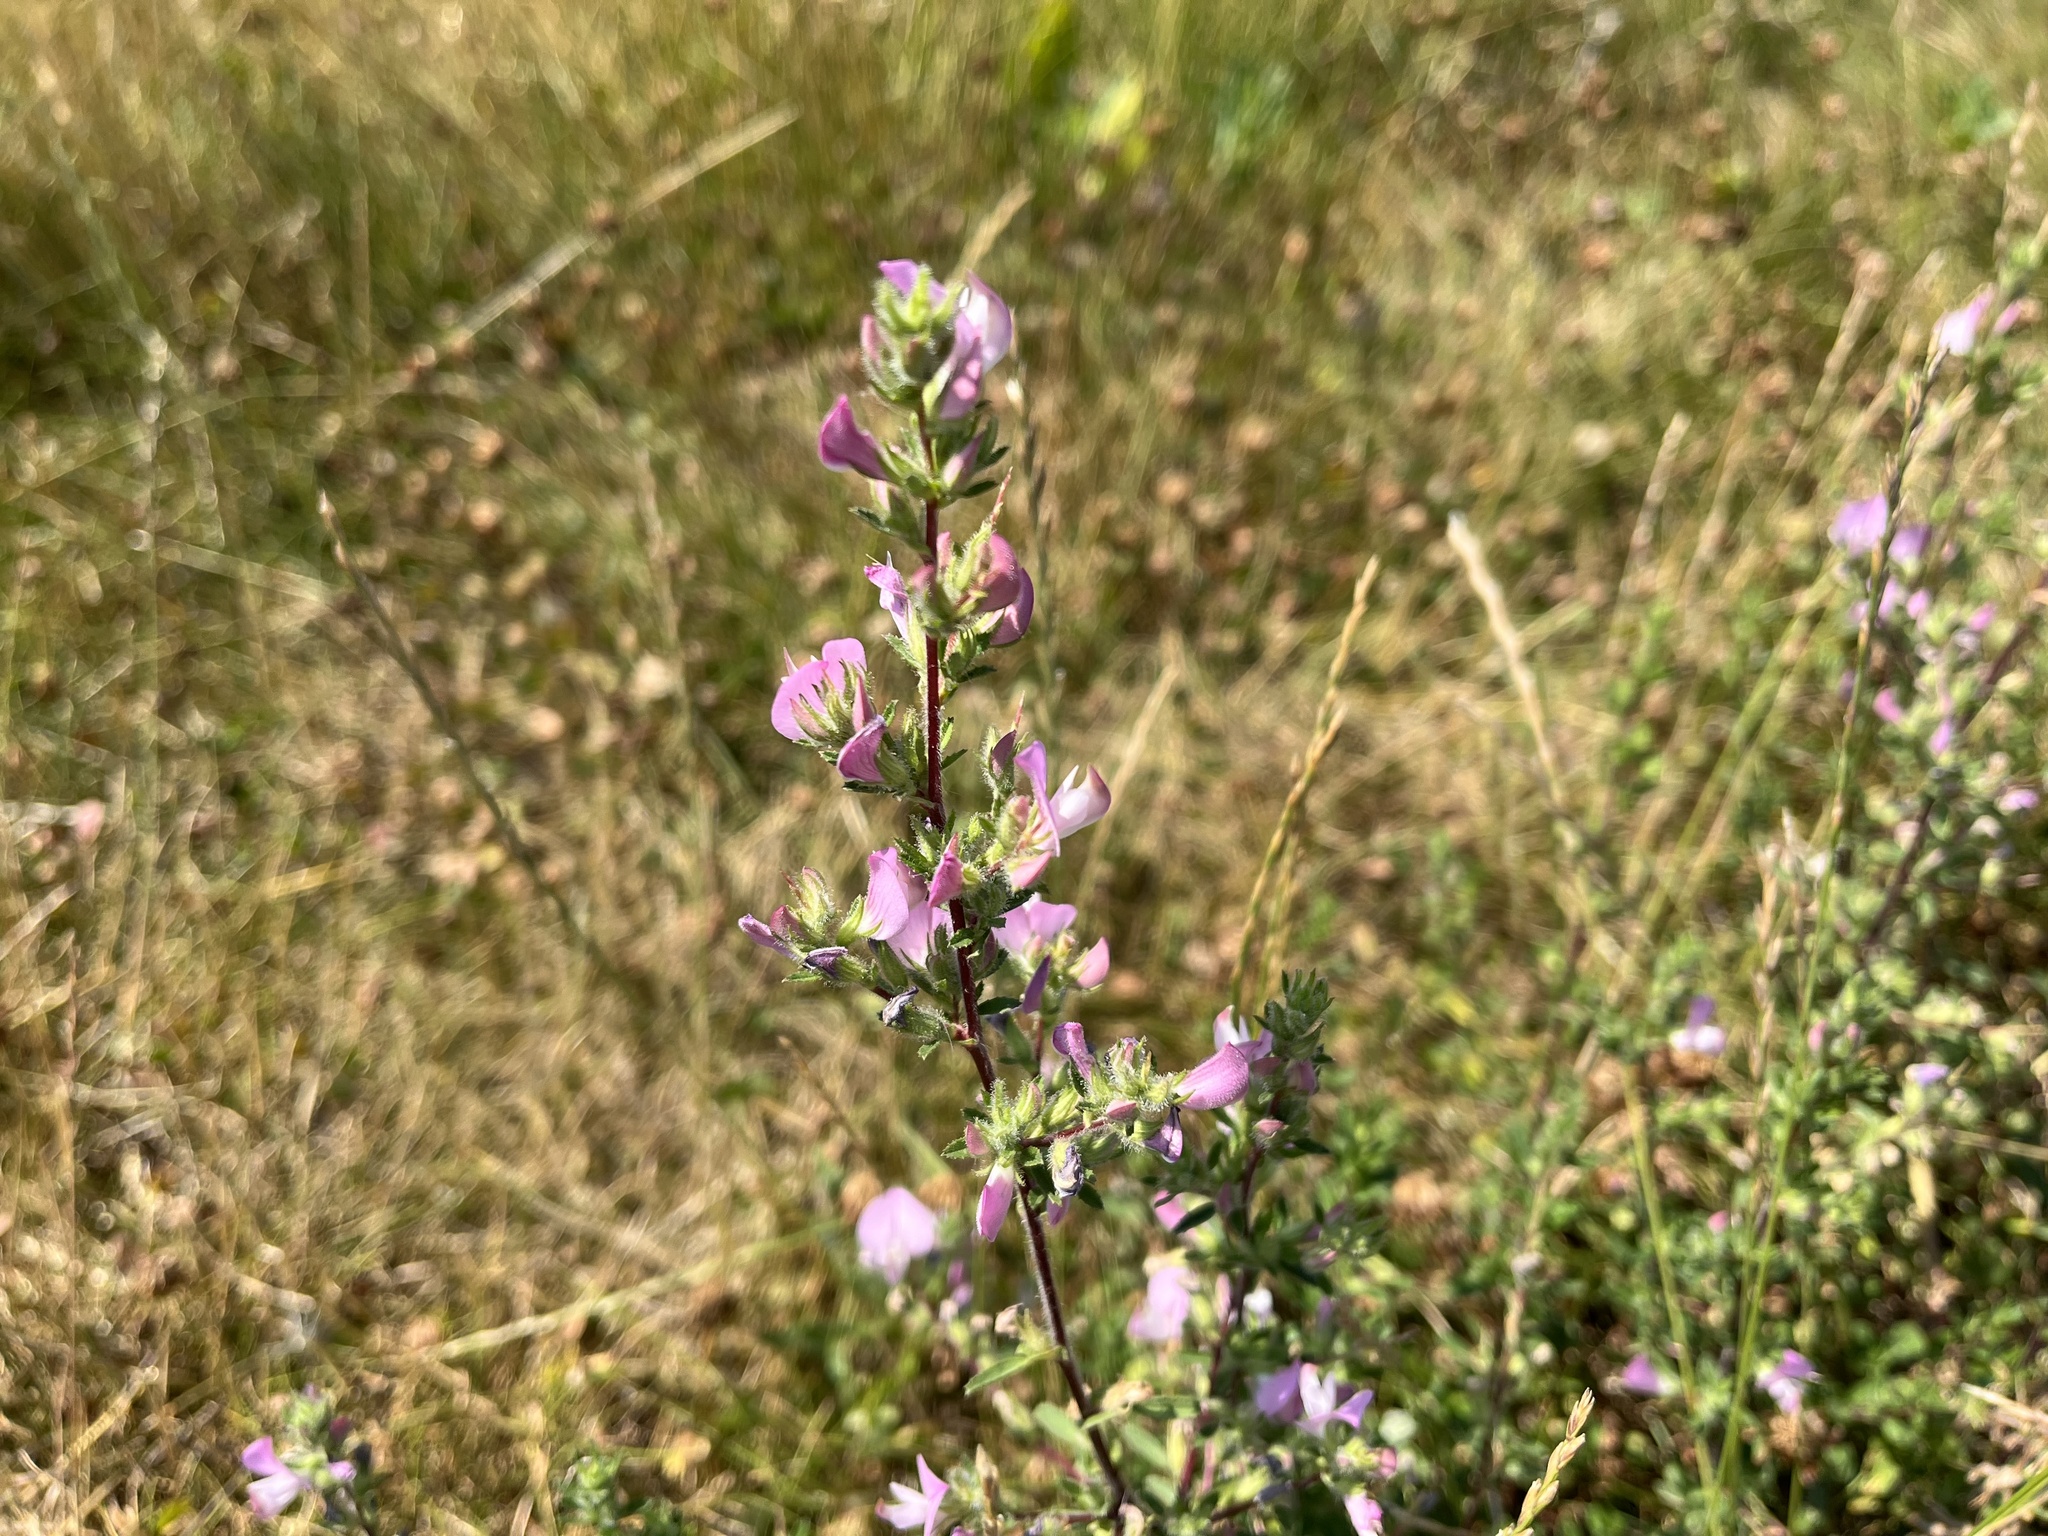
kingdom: Plantae
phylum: Tracheophyta
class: Magnoliopsida
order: Fabales
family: Fabaceae
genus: Ononis
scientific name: Ononis spinosa
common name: Spiny restharrow
